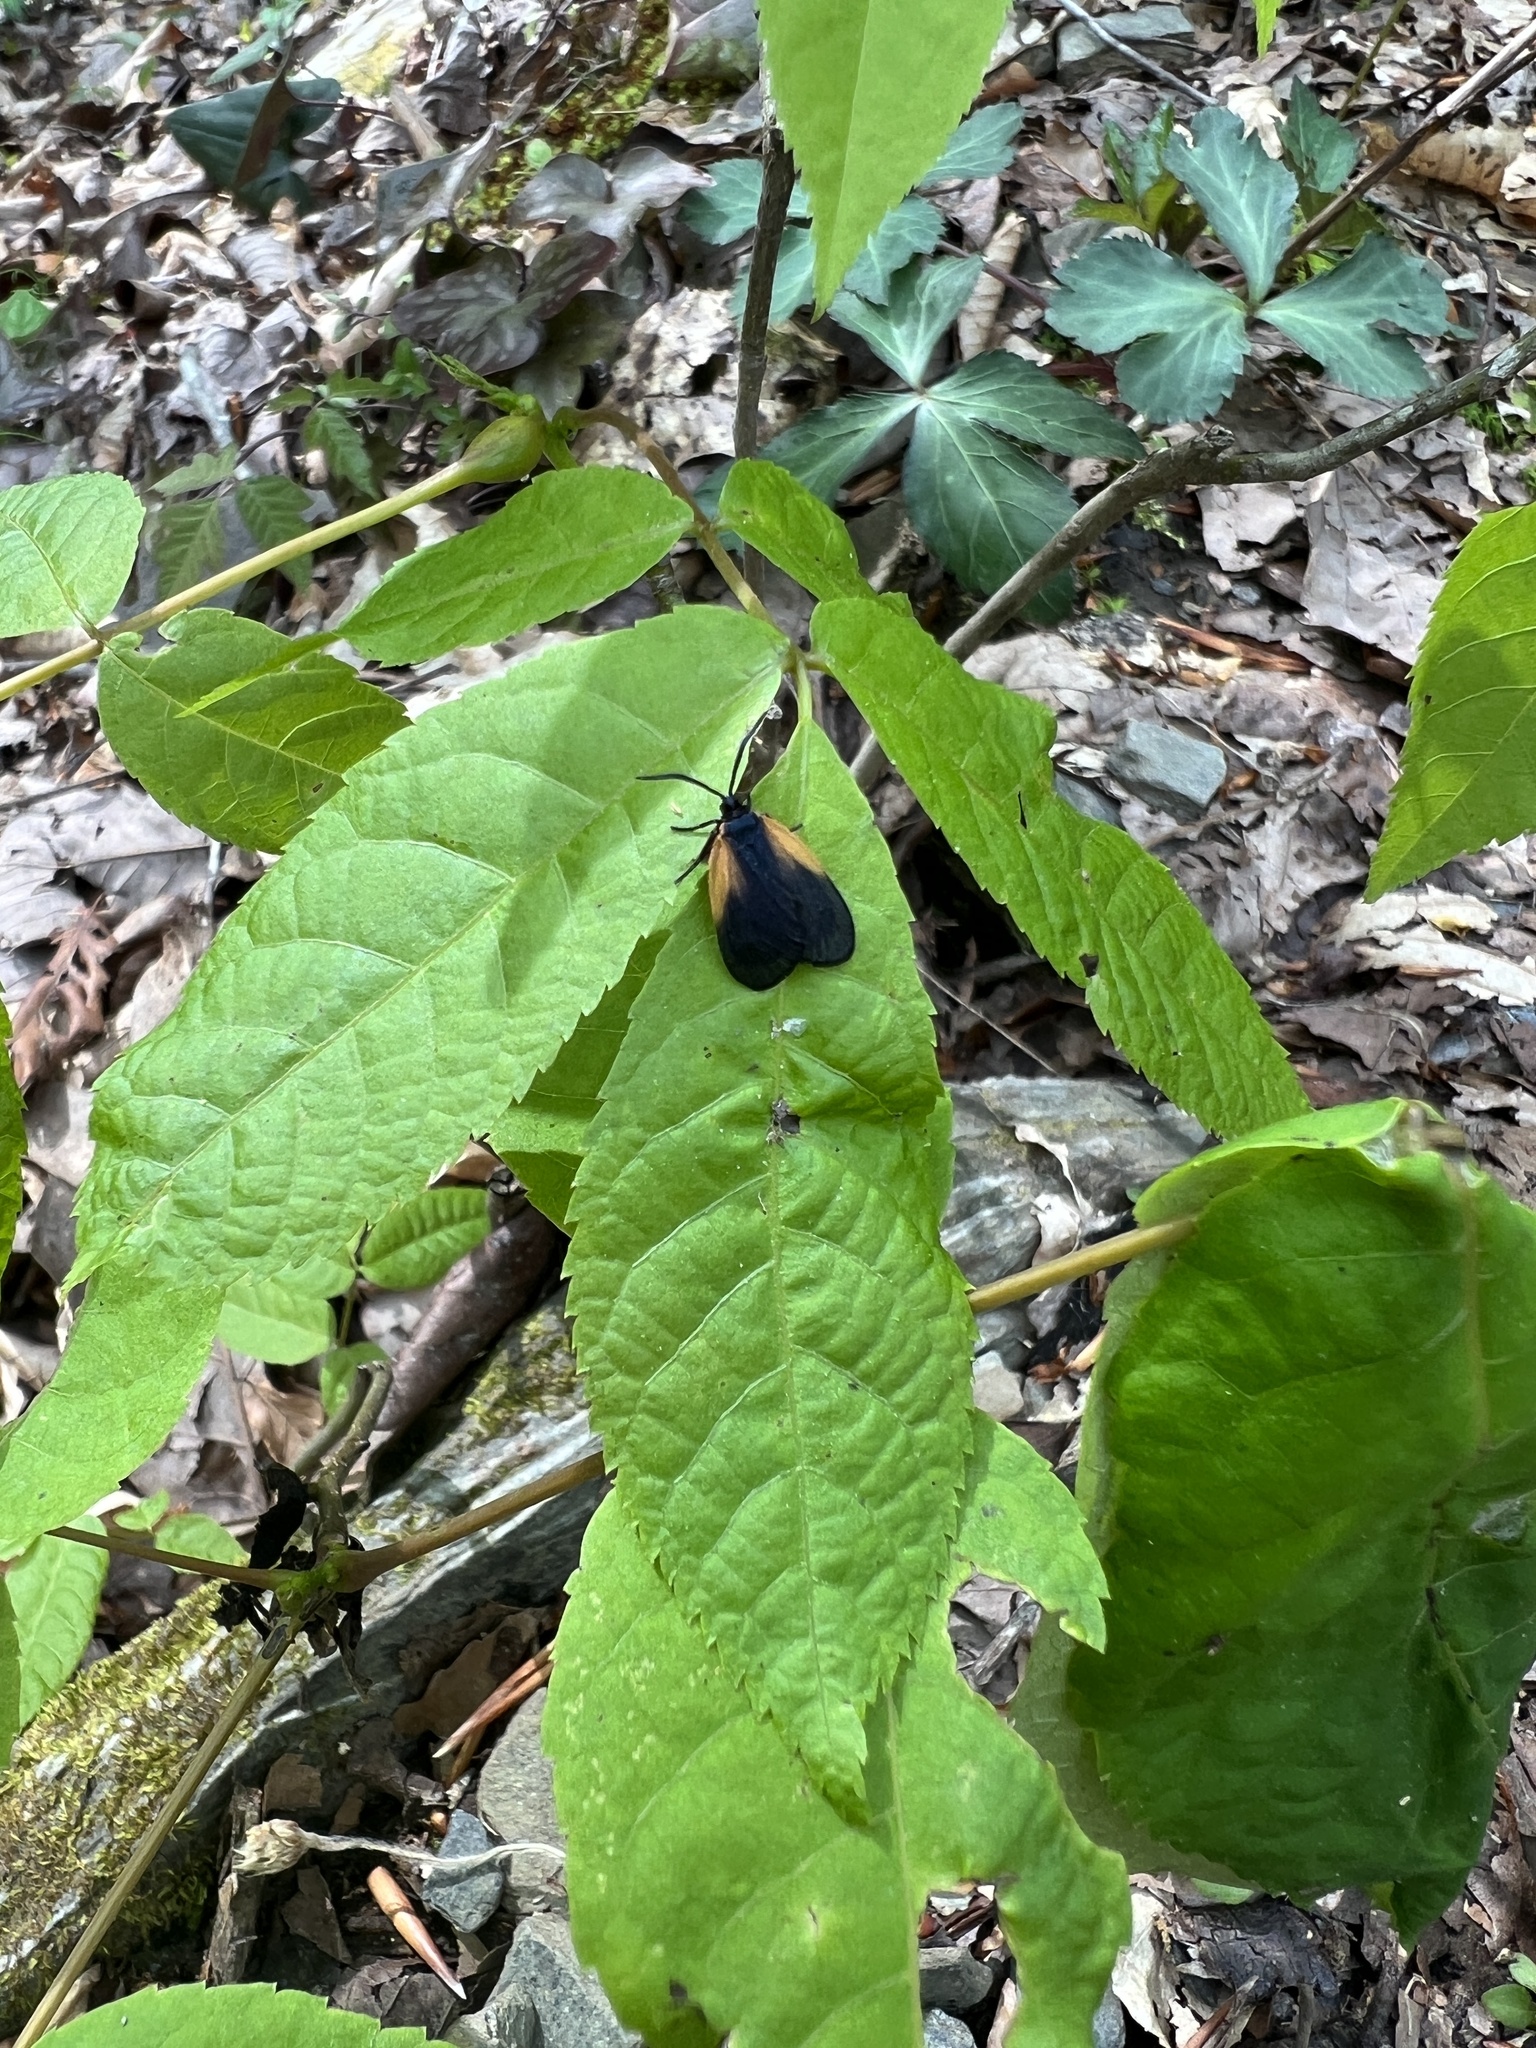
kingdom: Animalia
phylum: Arthropoda
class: Insecta
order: Lepidoptera
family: Zygaenidae
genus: Malthaca
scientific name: Malthaca dimidiata
